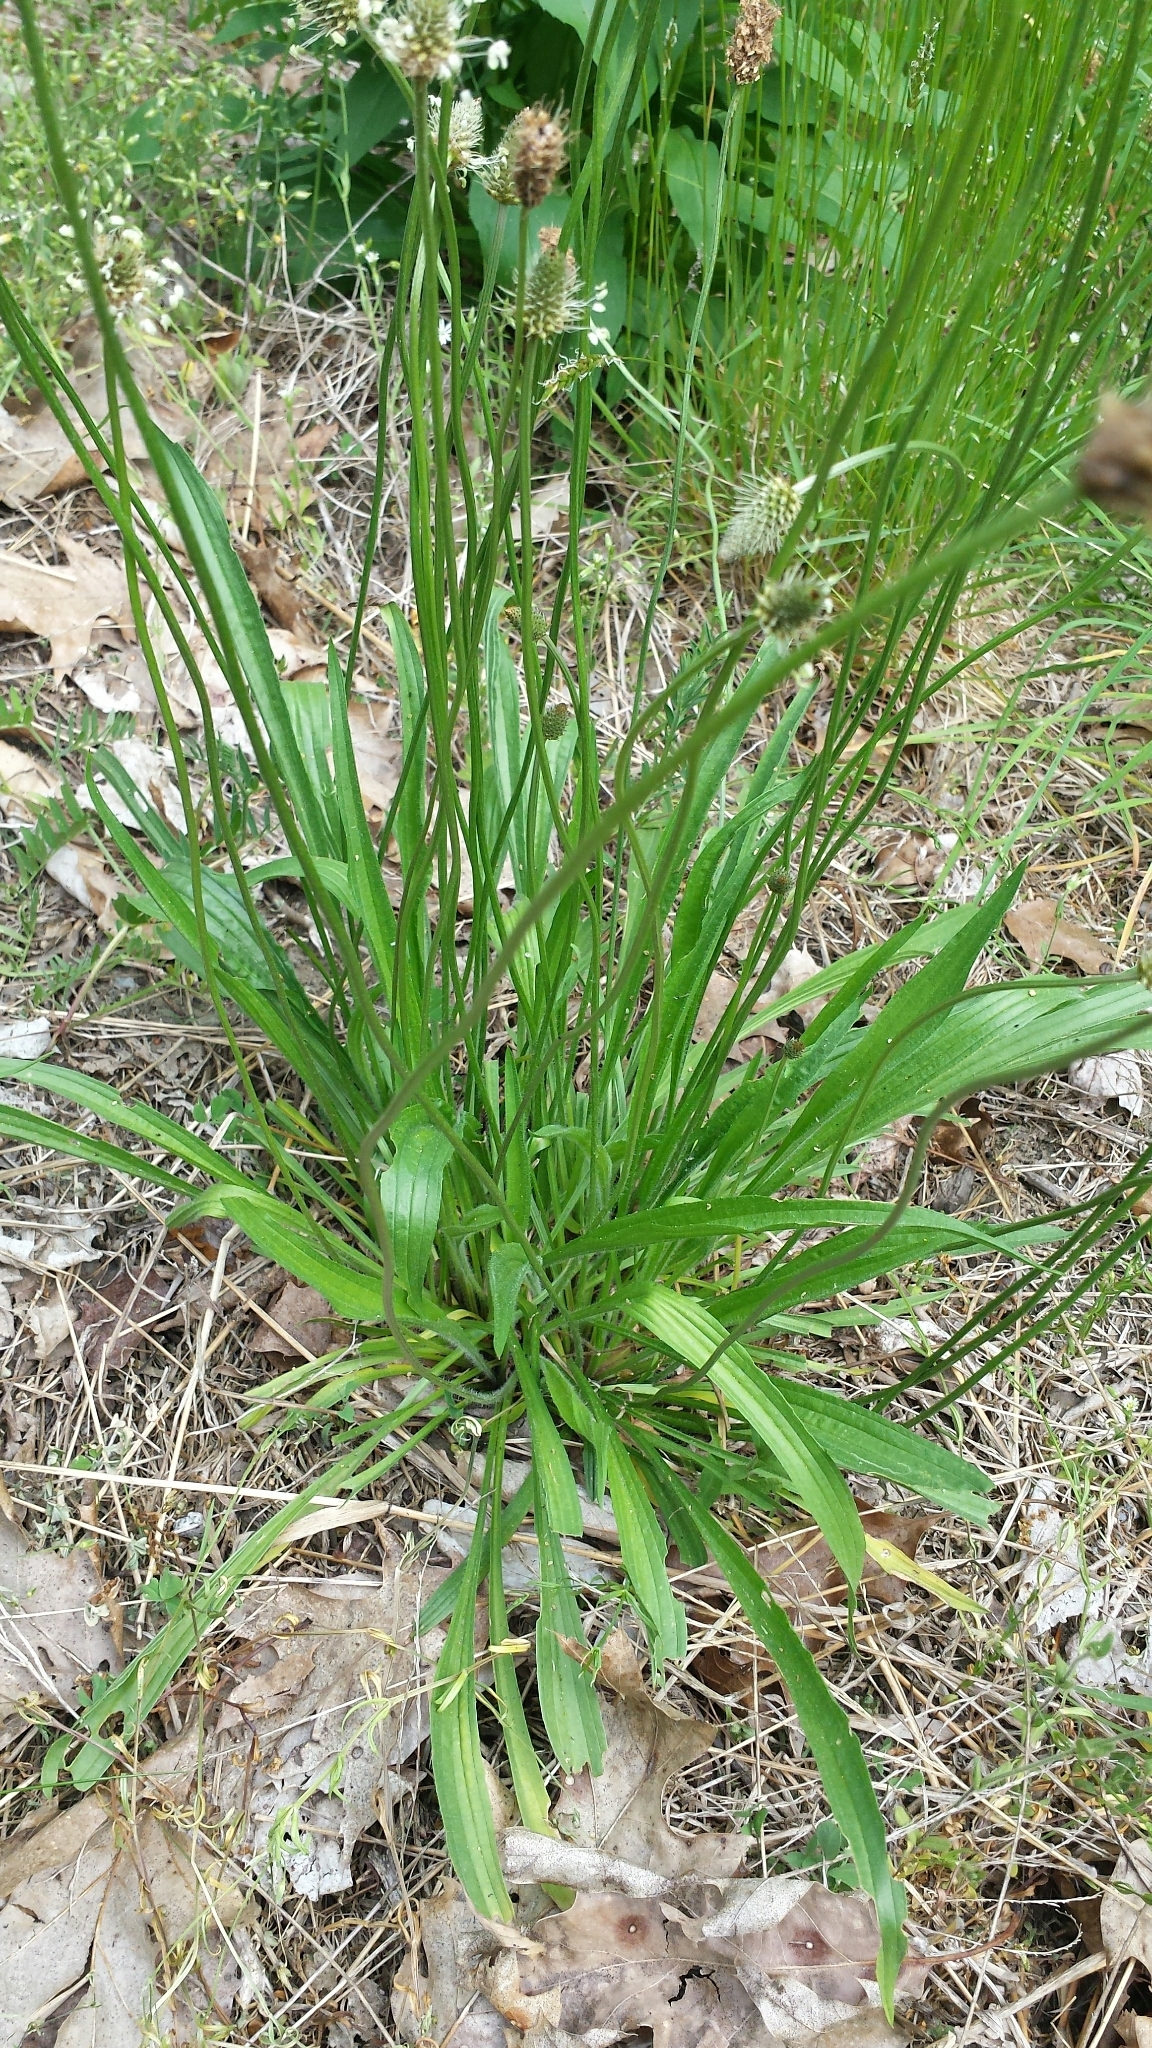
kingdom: Plantae
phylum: Tracheophyta
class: Magnoliopsida
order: Lamiales
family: Plantaginaceae
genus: Plantago
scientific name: Plantago lanceolata
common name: Ribwort plantain
